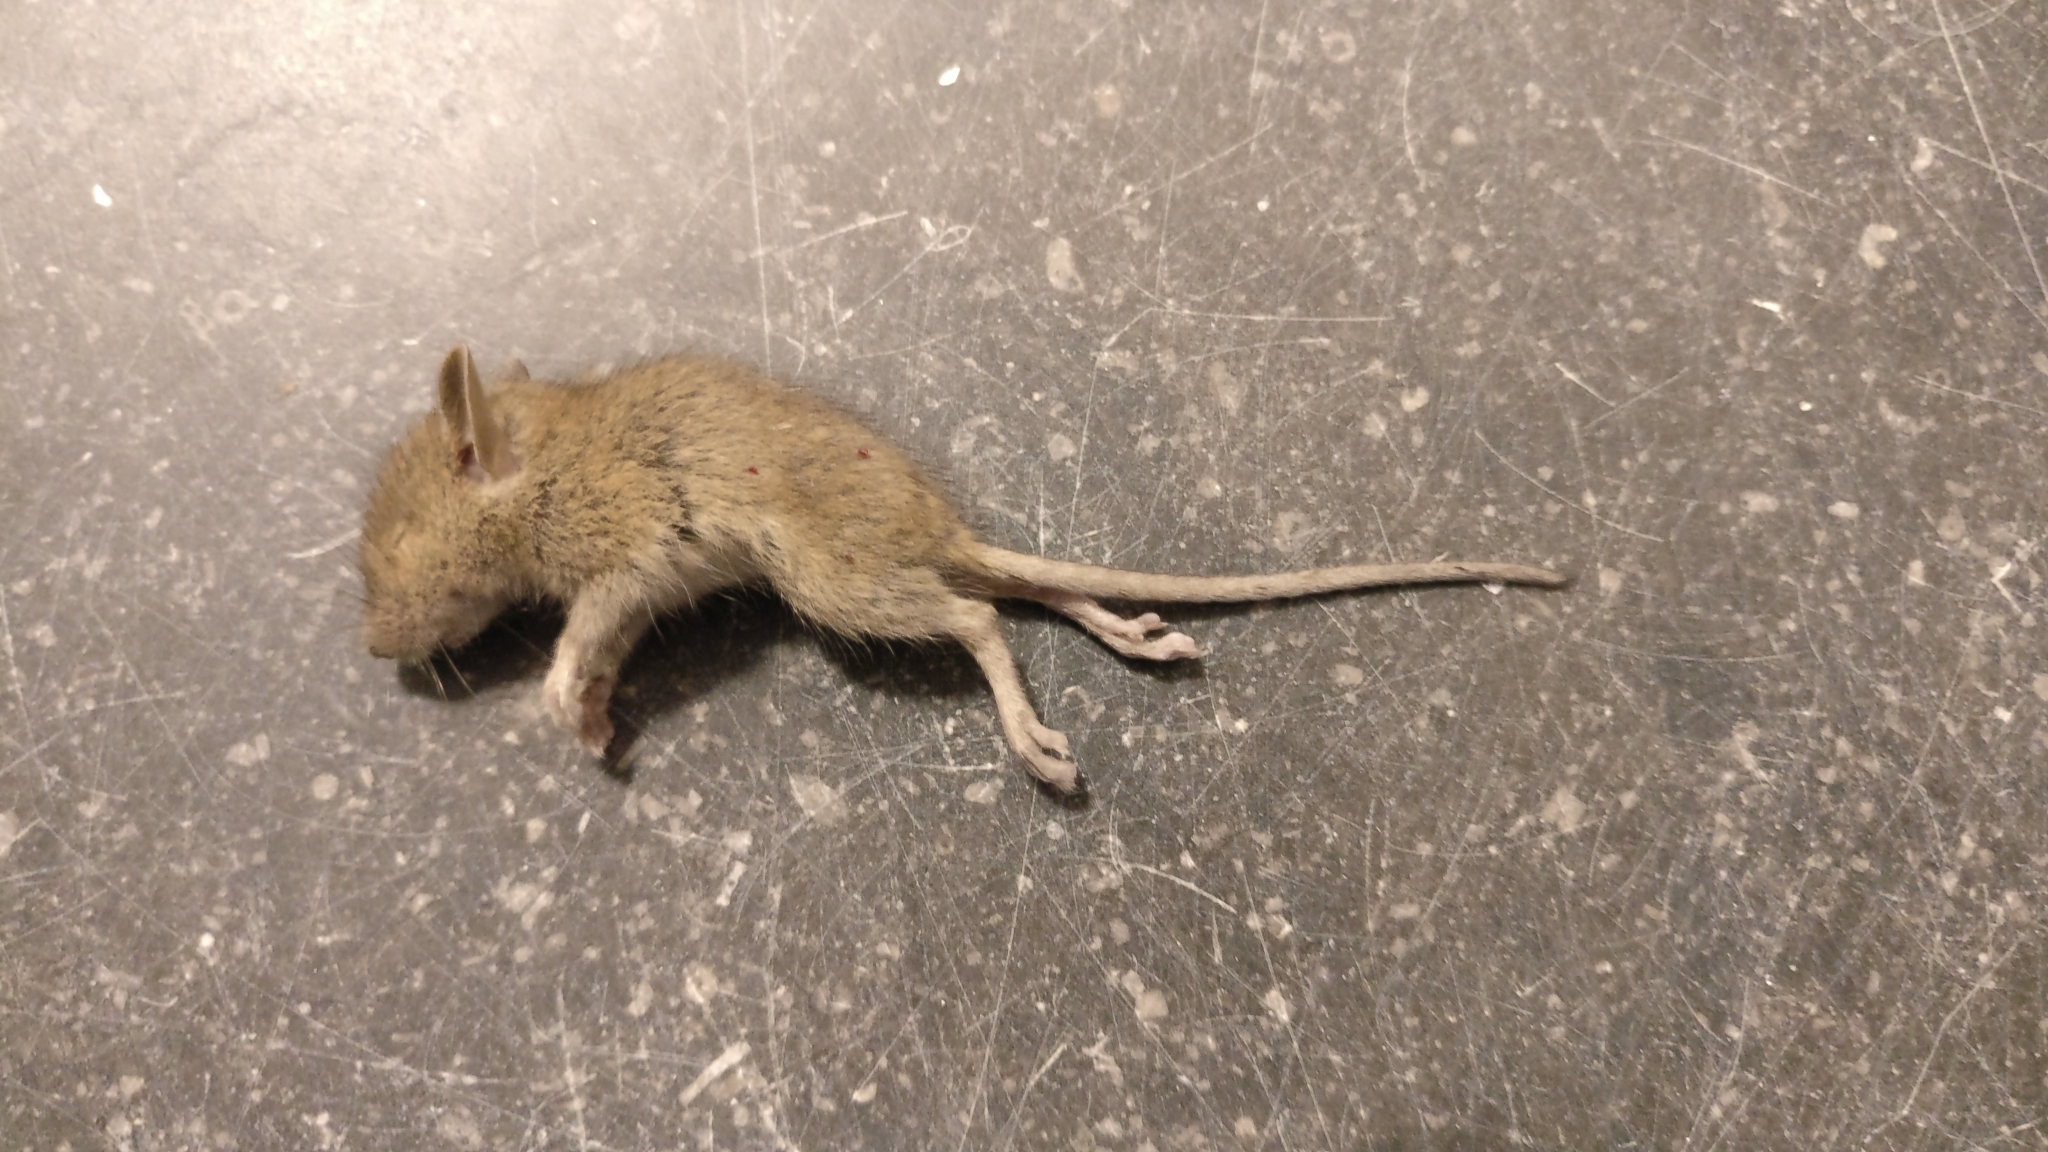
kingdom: Animalia
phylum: Chordata
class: Mammalia
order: Rodentia
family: Muridae
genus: Mus
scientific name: Mus musculus
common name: House mouse
